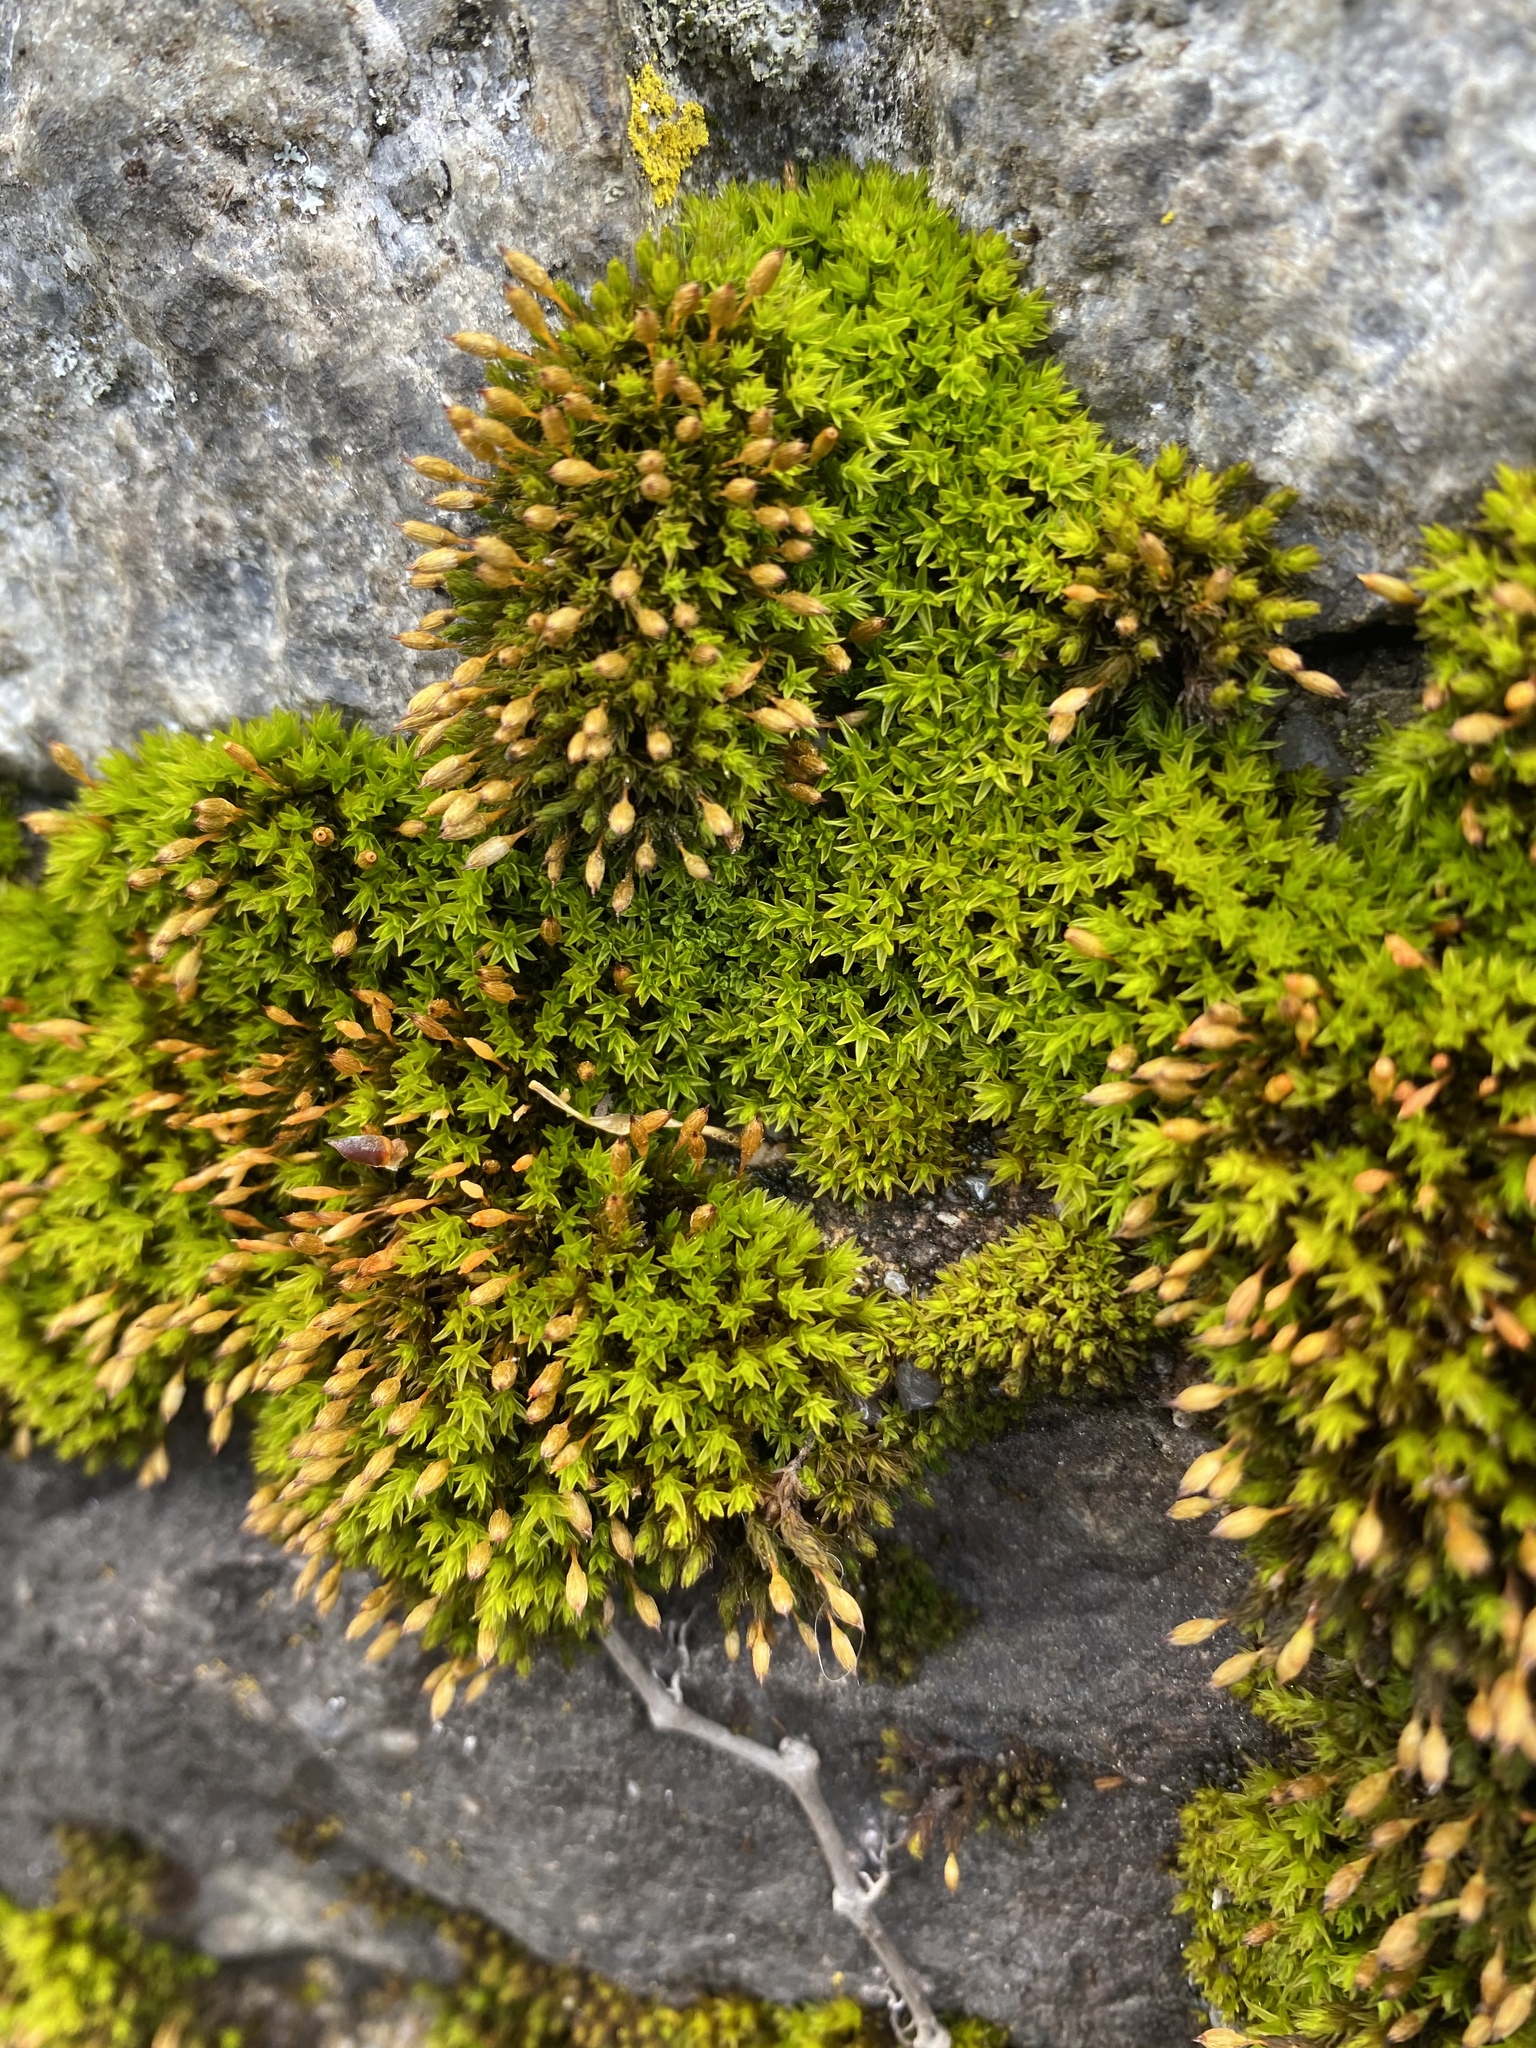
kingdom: Plantae
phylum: Bryophyta
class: Bryopsida
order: Orthotrichales
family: Orthotrichaceae
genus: Ulota
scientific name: Ulota crispa
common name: Crisped pincushion moss
